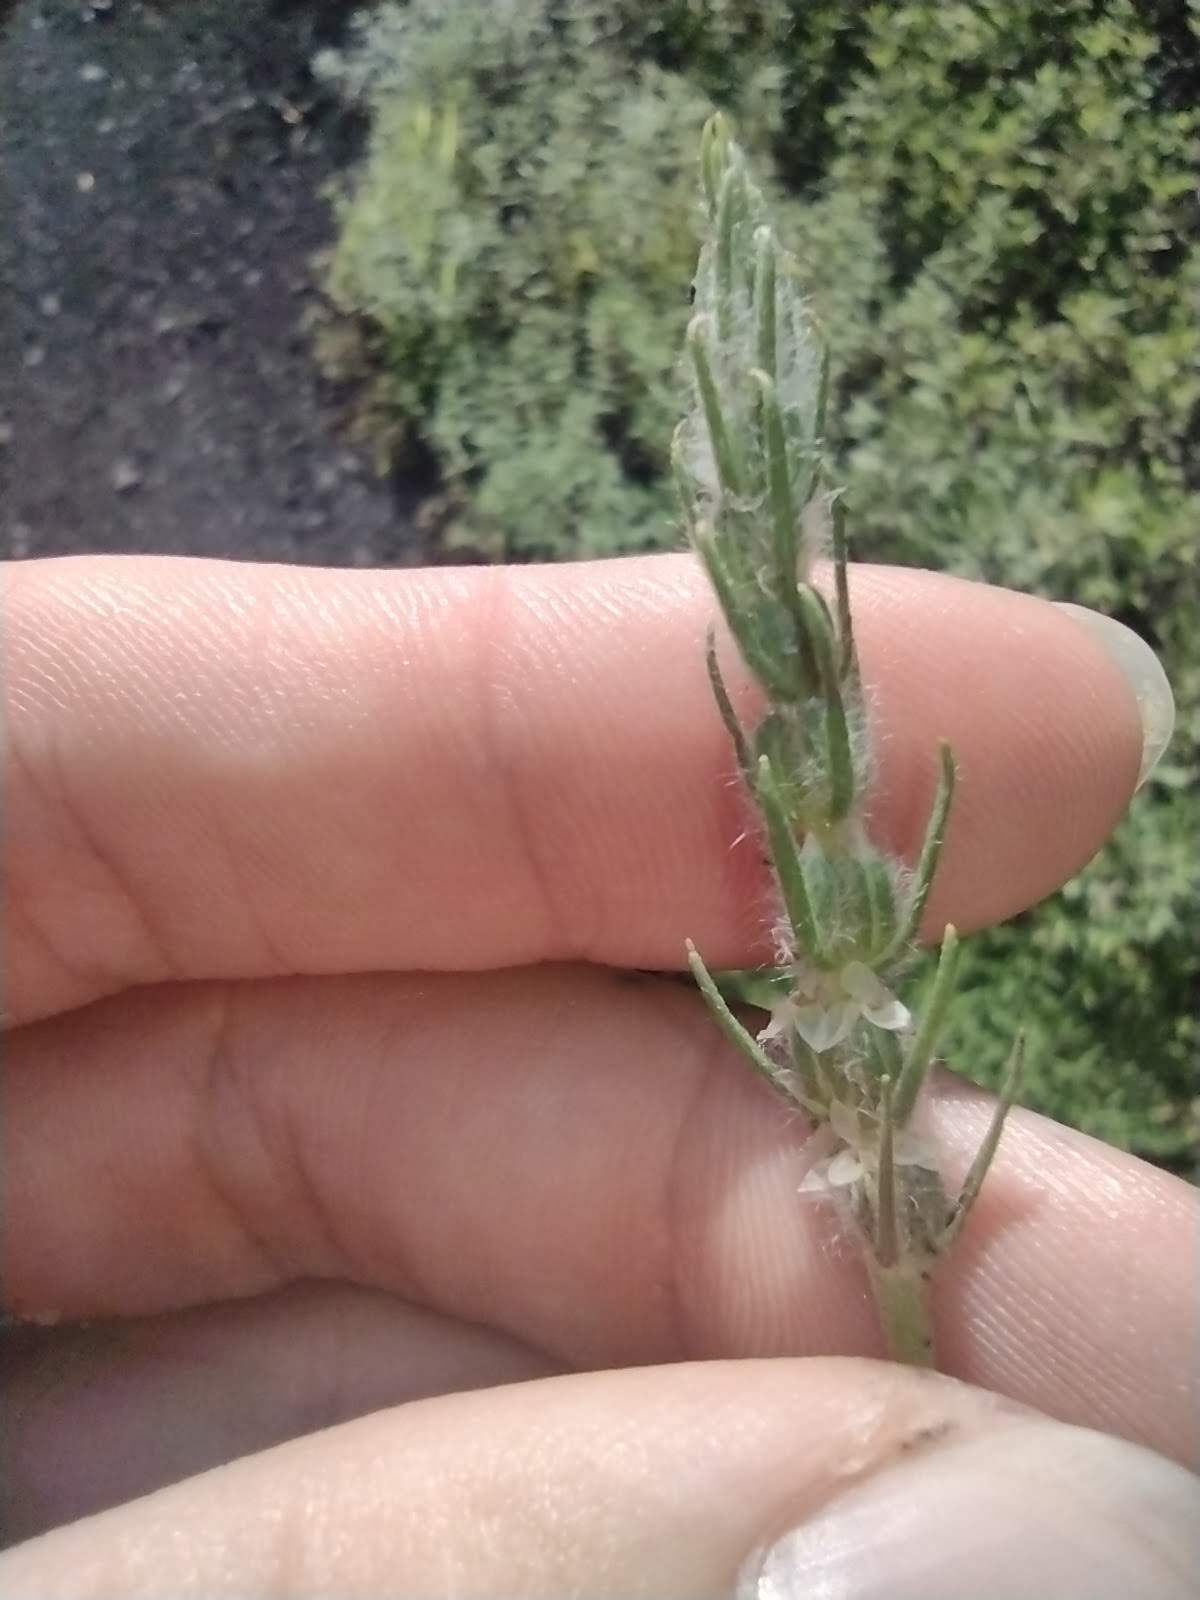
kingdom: Plantae
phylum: Tracheophyta
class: Magnoliopsida
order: Lamiales
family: Plantaginaceae
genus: Plantago
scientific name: Plantago aristata
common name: Bracted plantain
